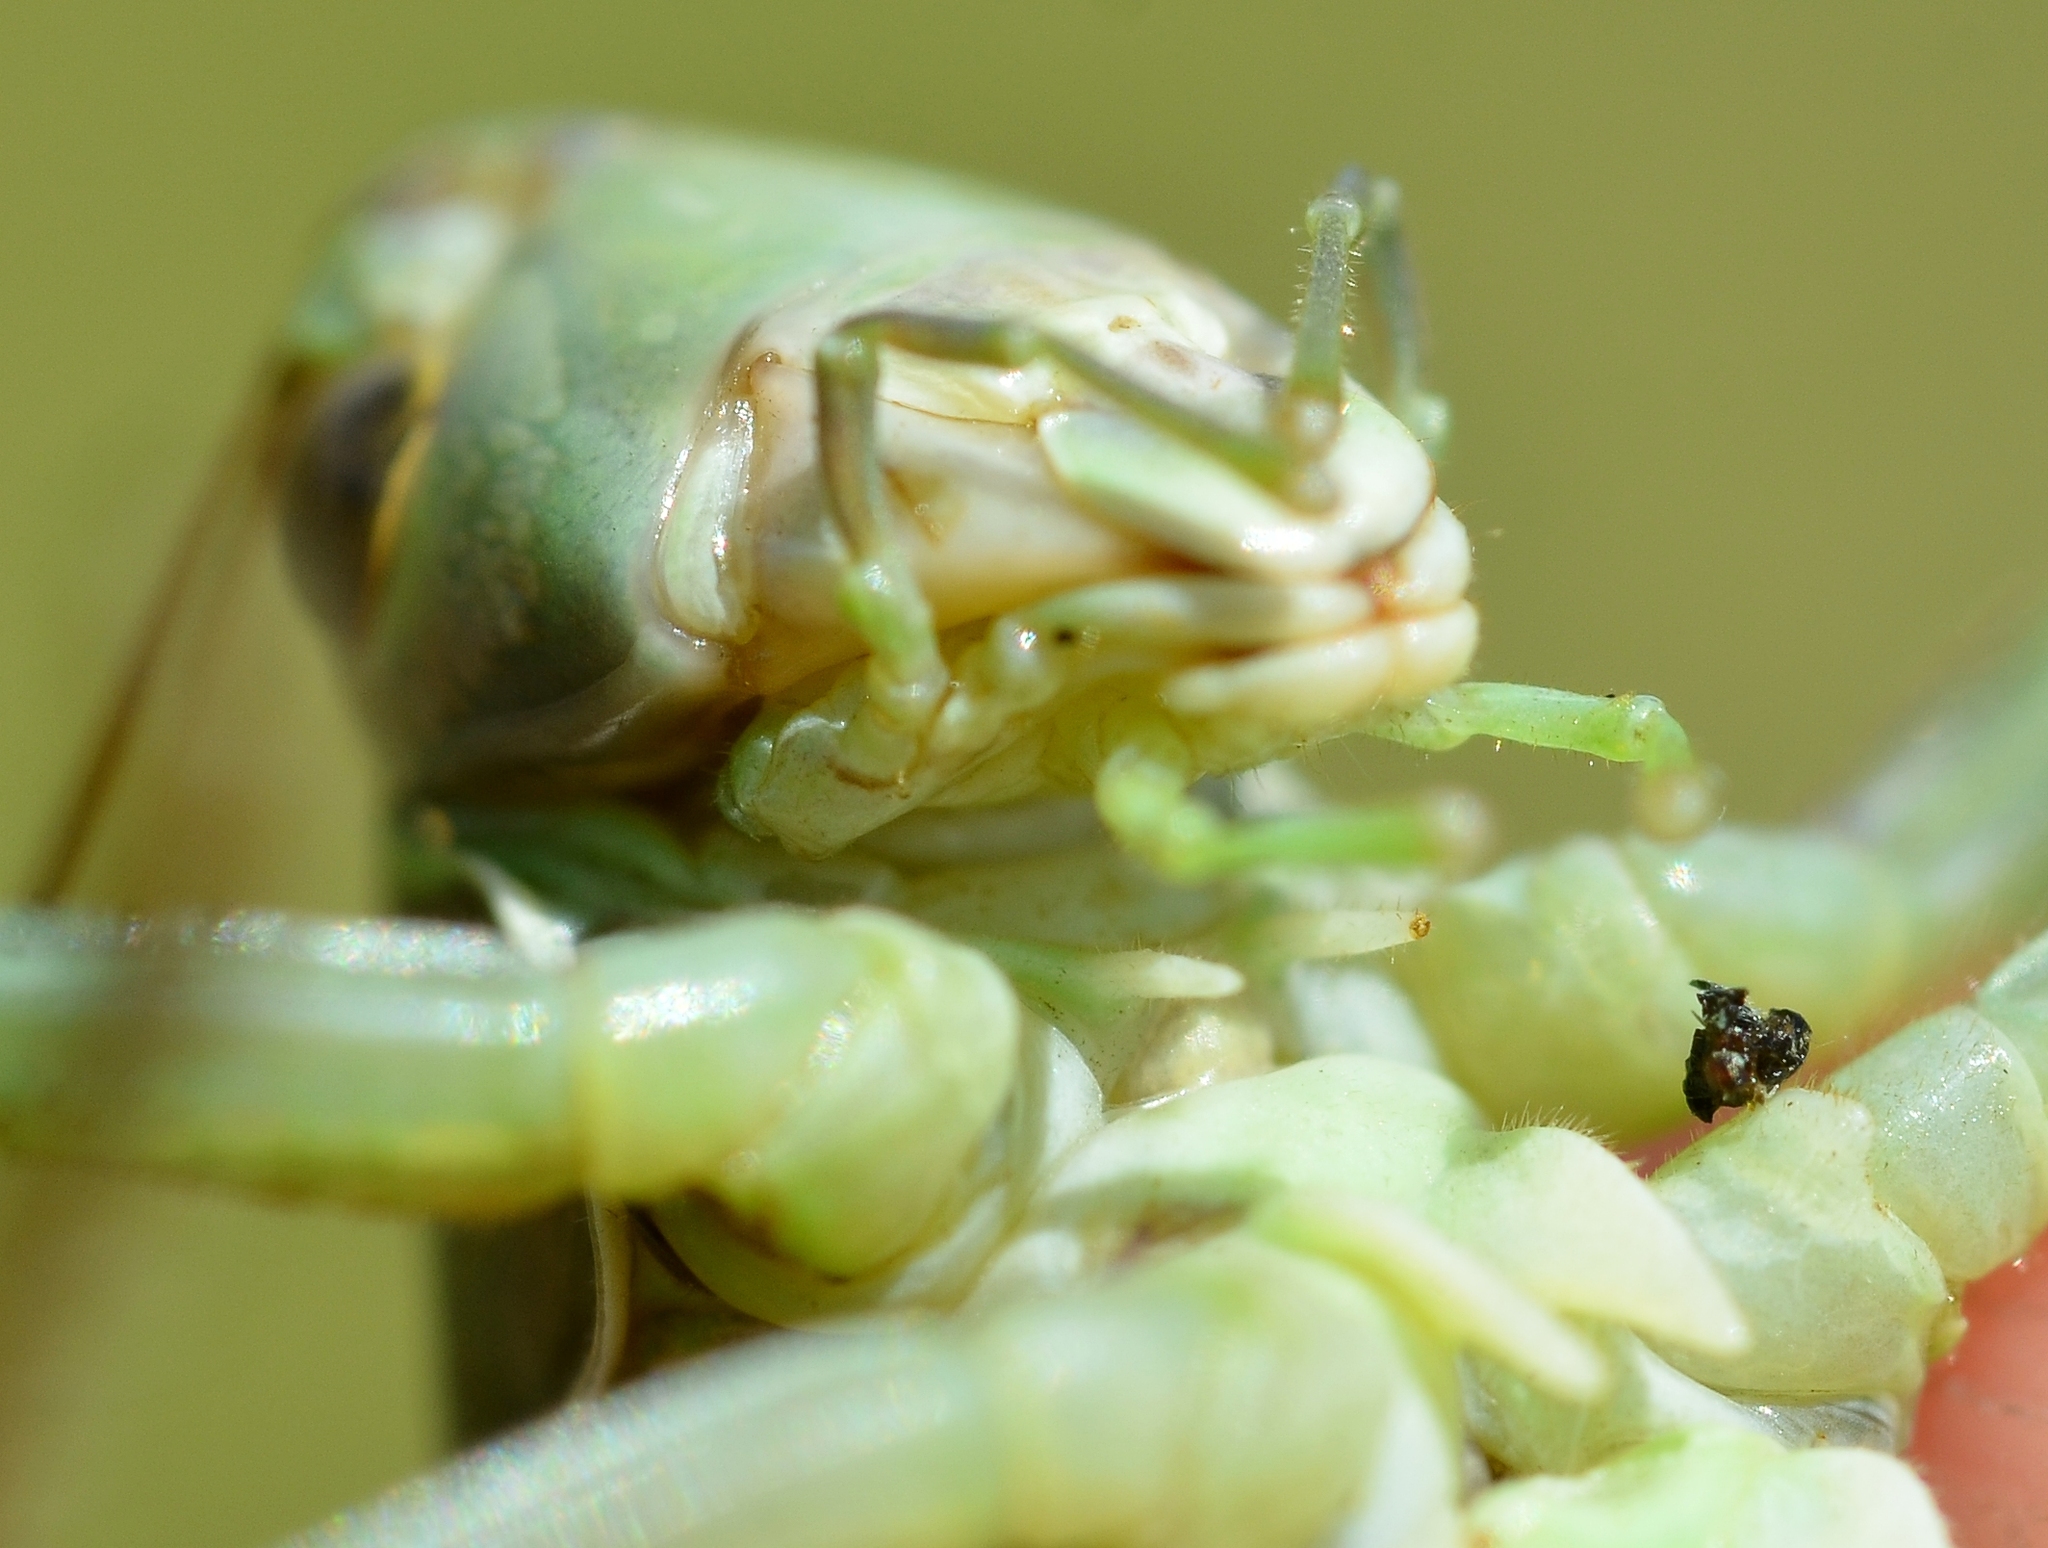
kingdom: Animalia
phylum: Arthropoda
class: Insecta
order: Orthoptera
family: Tettigoniidae
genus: Gampsocleis
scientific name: Gampsocleis glabra
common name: Heath bushcricket
